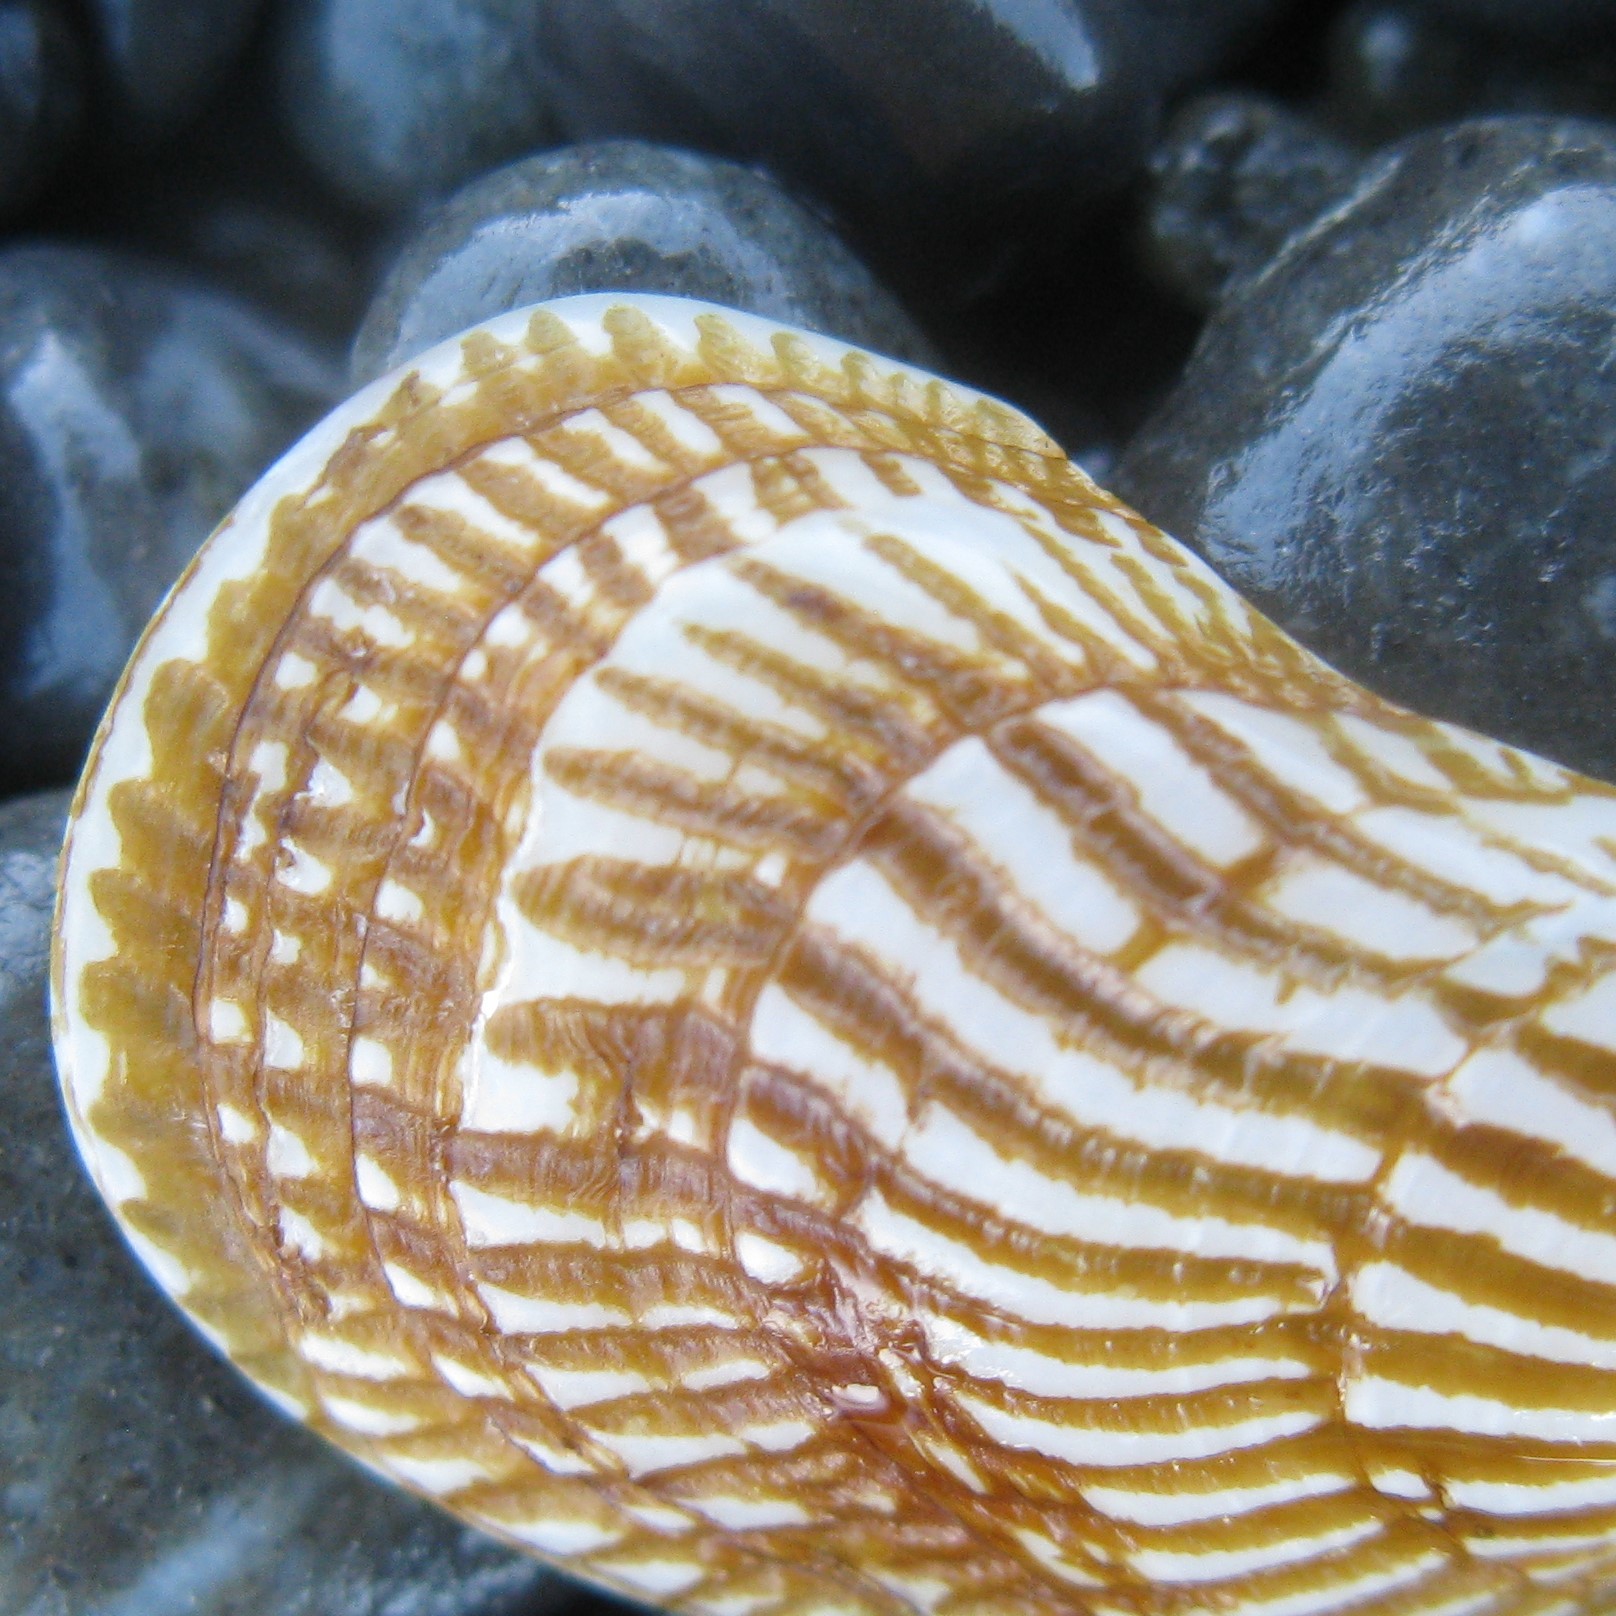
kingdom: Animalia
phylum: Mollusca
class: Bivalvia
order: Mytilida
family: Mytilidae
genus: Aulacomya
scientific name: Aulacomya maoriana
